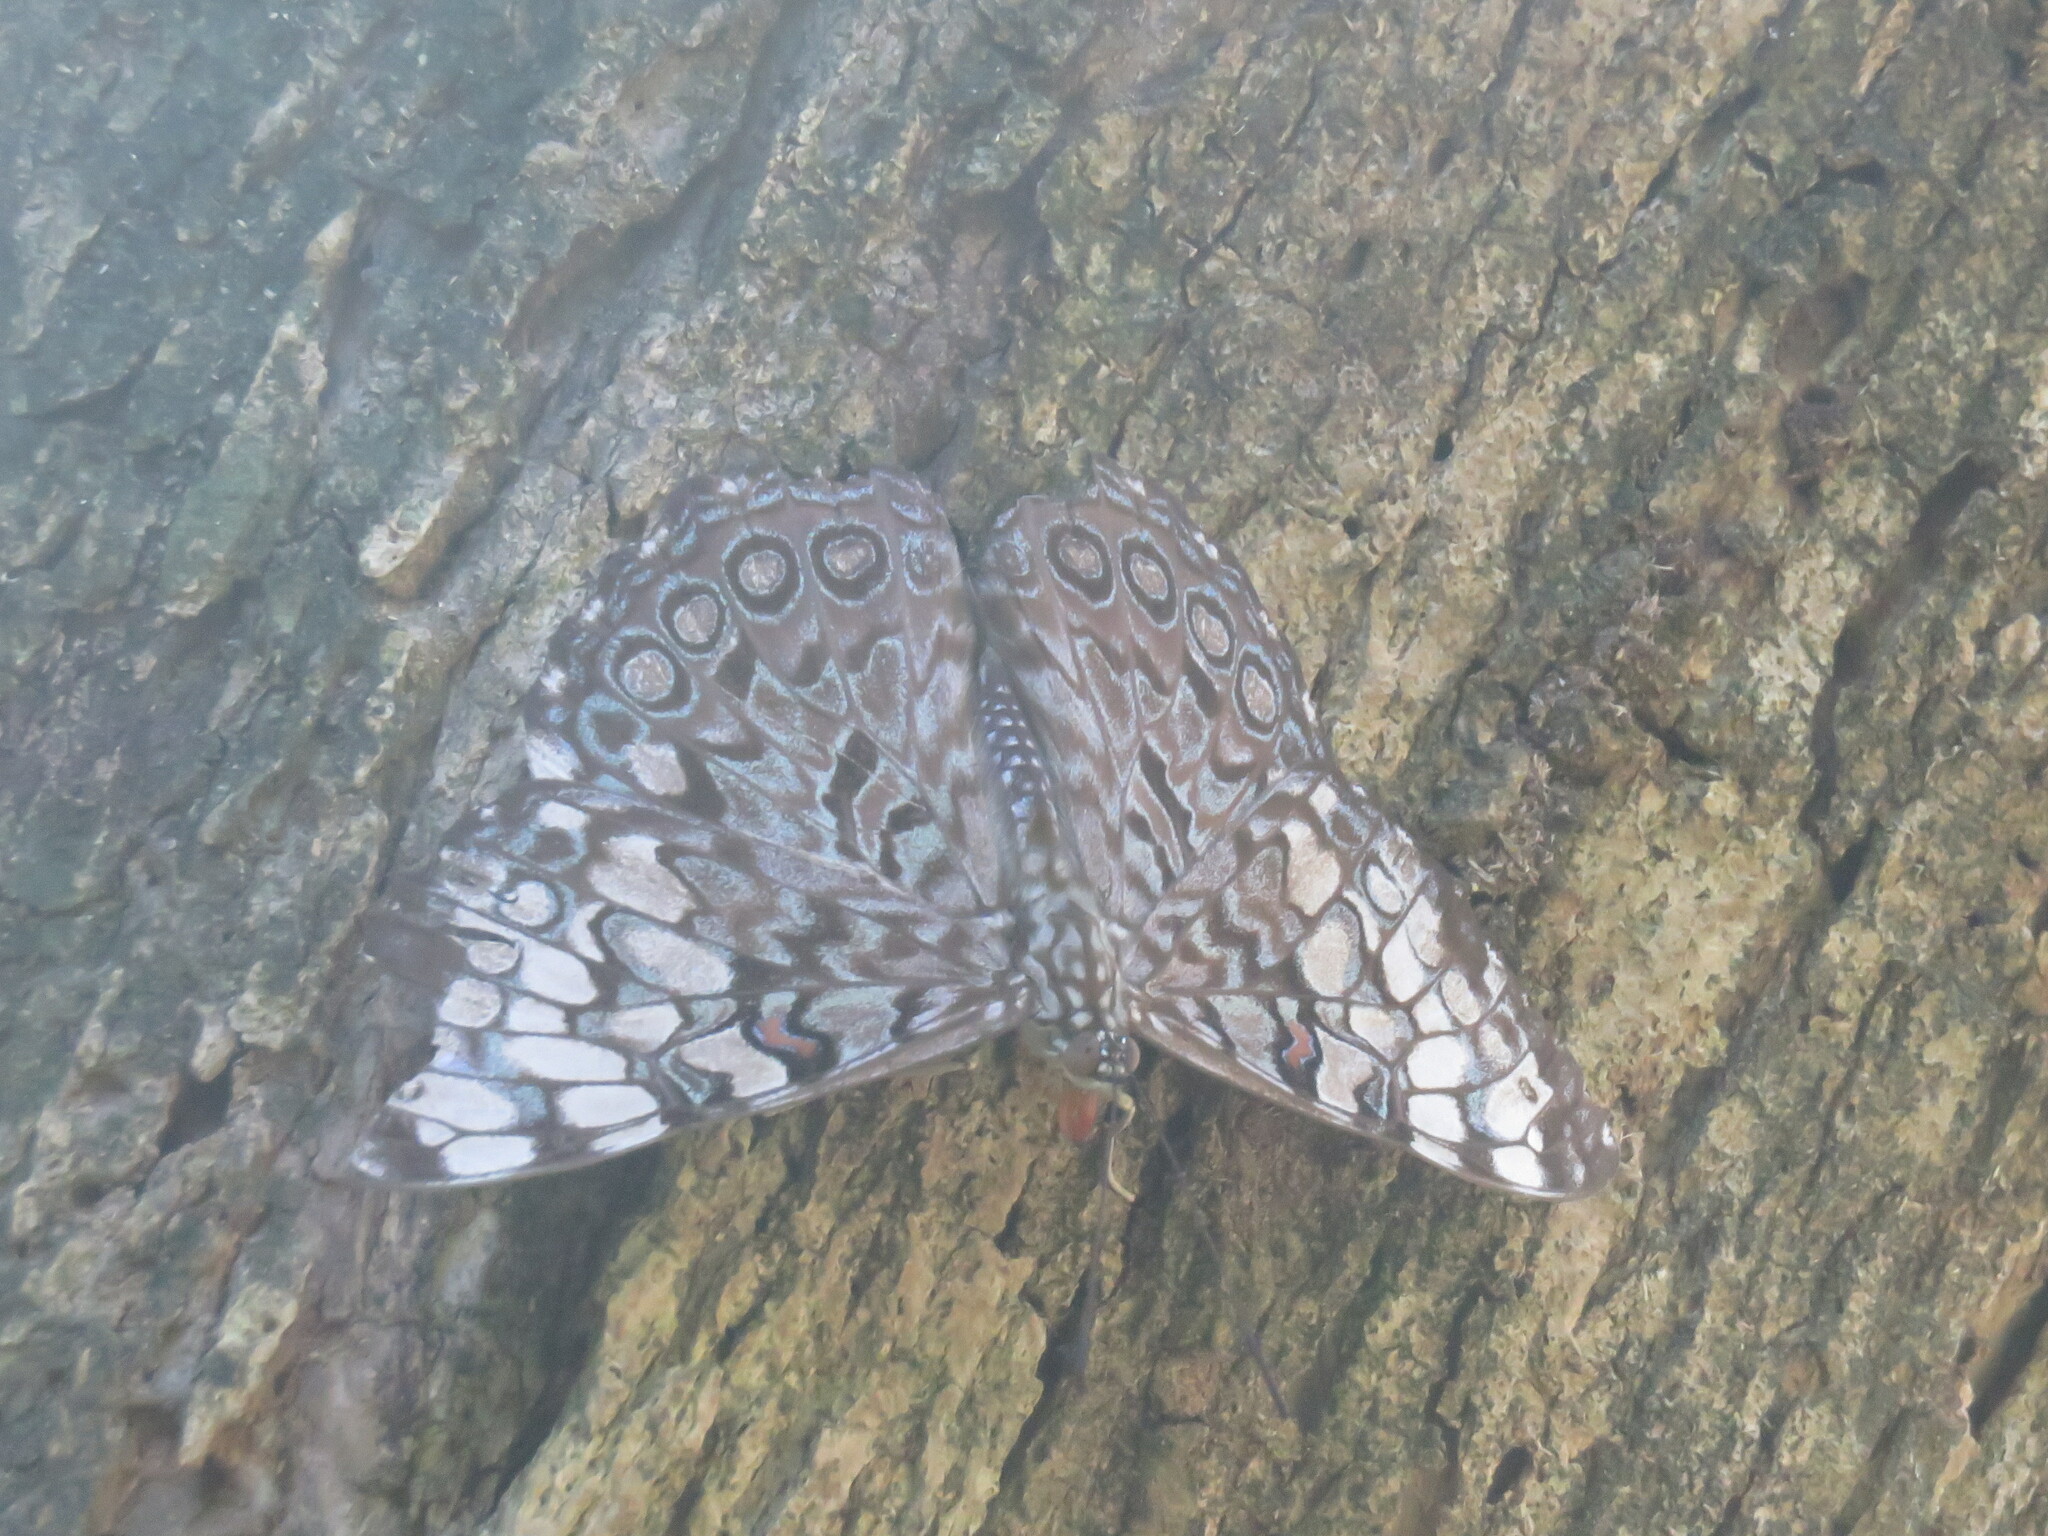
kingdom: Animalia
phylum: Arthropoda
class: Insecta
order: Lepidoptera
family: Nymphalidae
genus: Hamadryas
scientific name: Hamadryas guatemalena
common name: Guatemalan cracker
